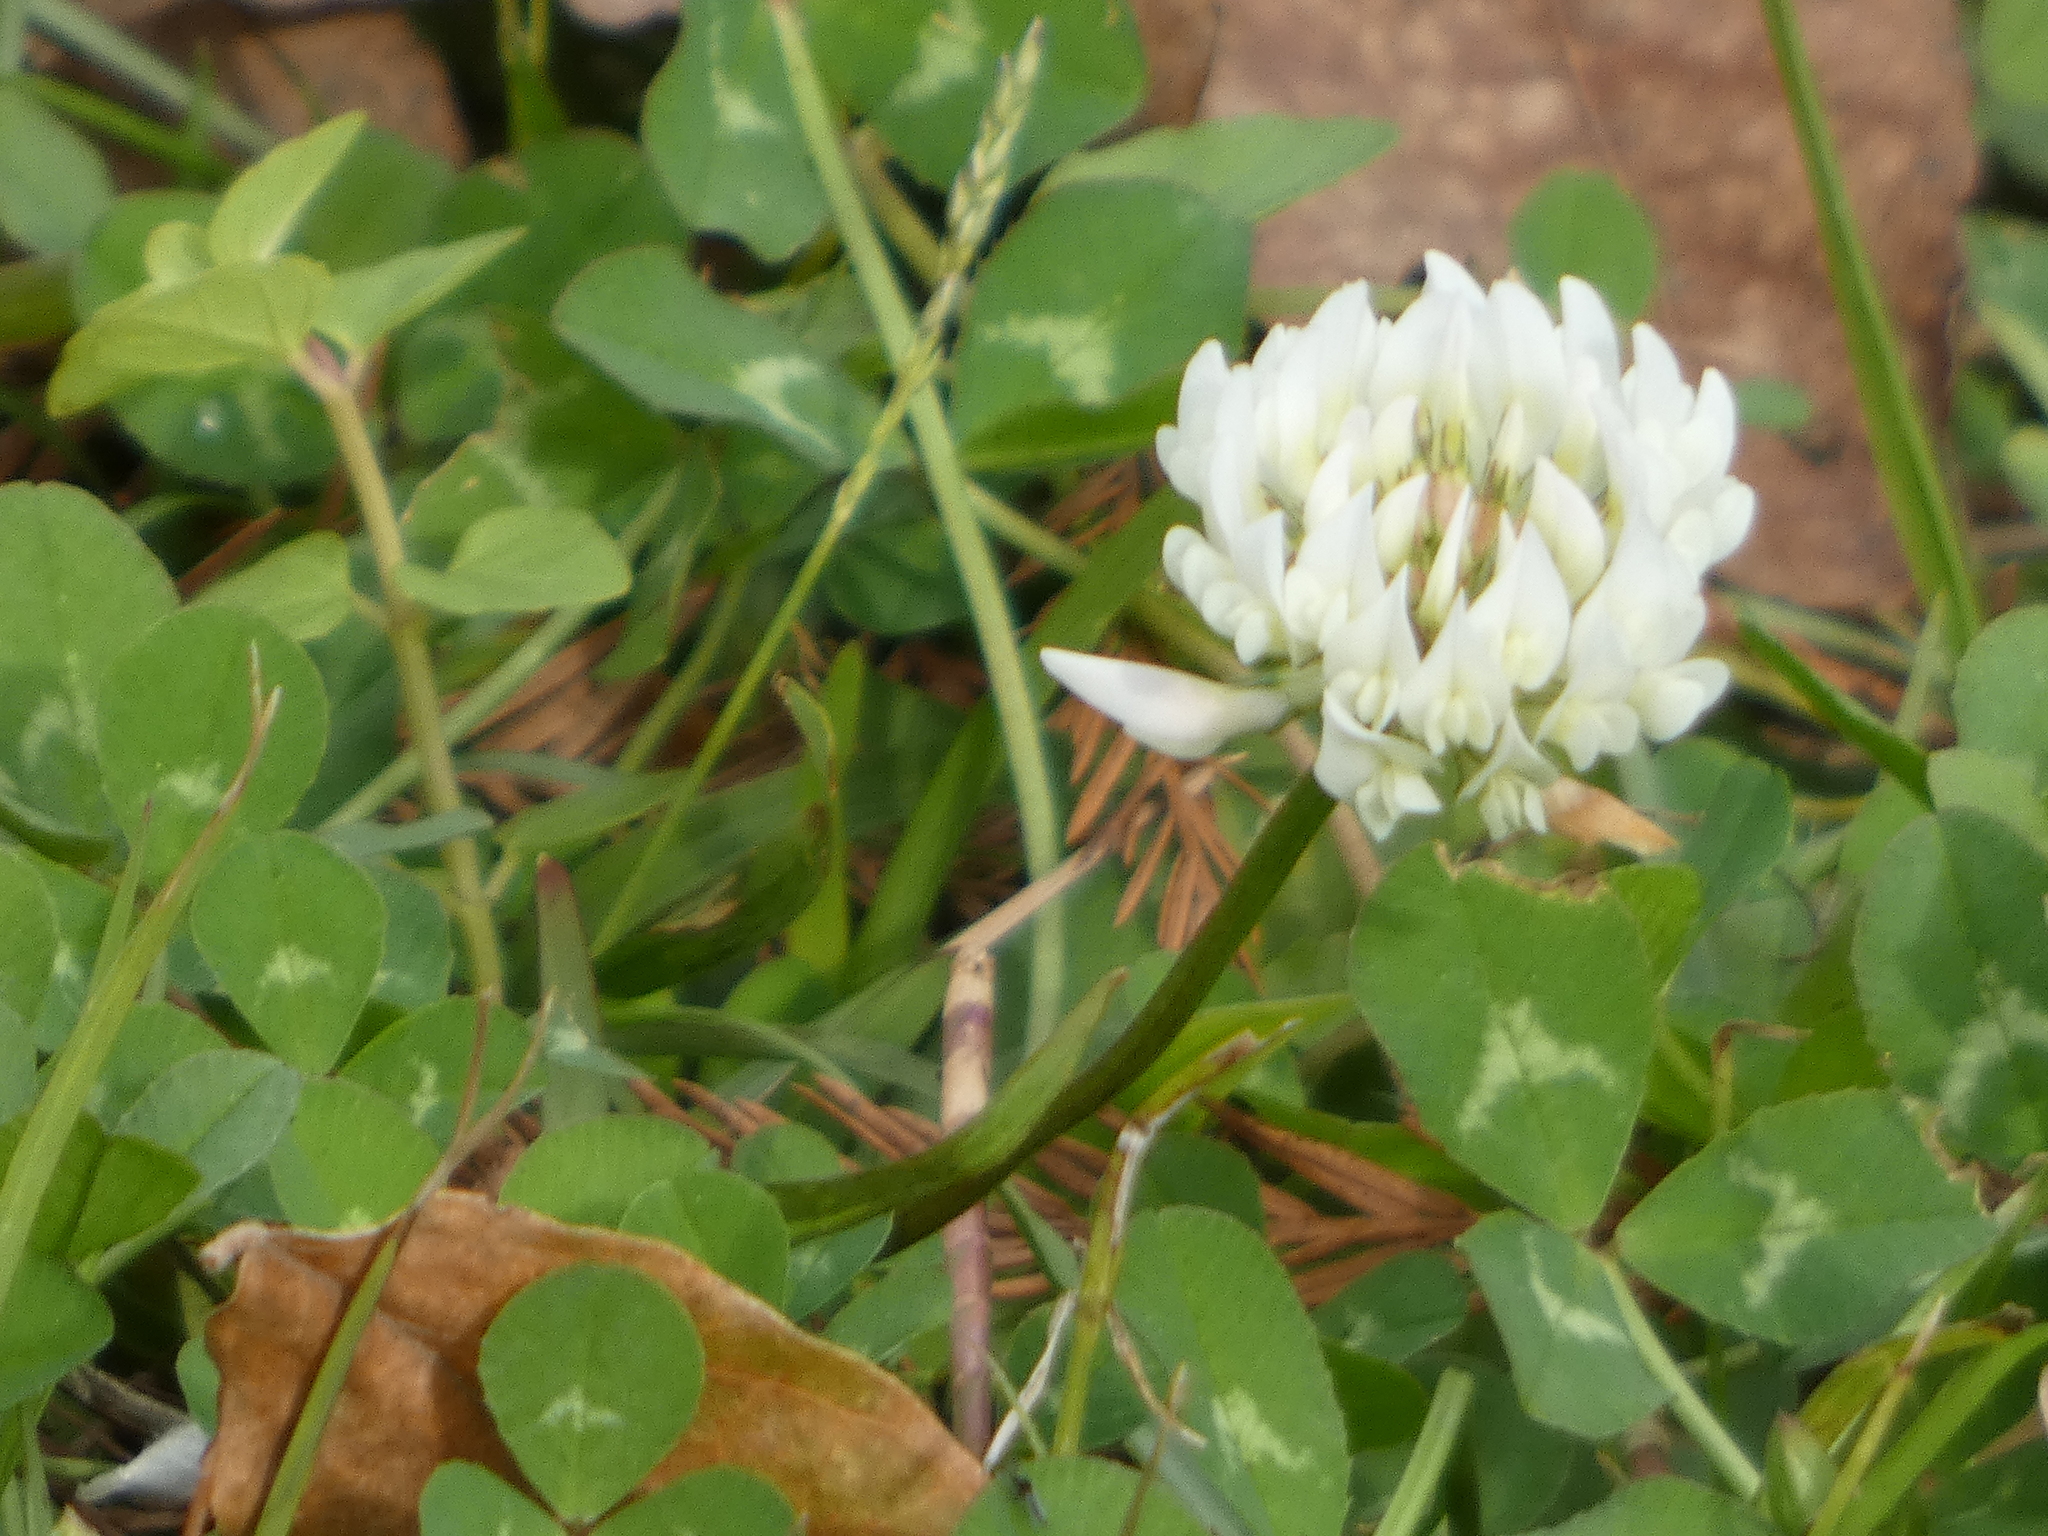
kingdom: Plantae
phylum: Tracheophyta
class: Magnoliopsida
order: Fabales
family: Fabaceae
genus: Trifolium
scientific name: Trifolium repens
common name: White clover
